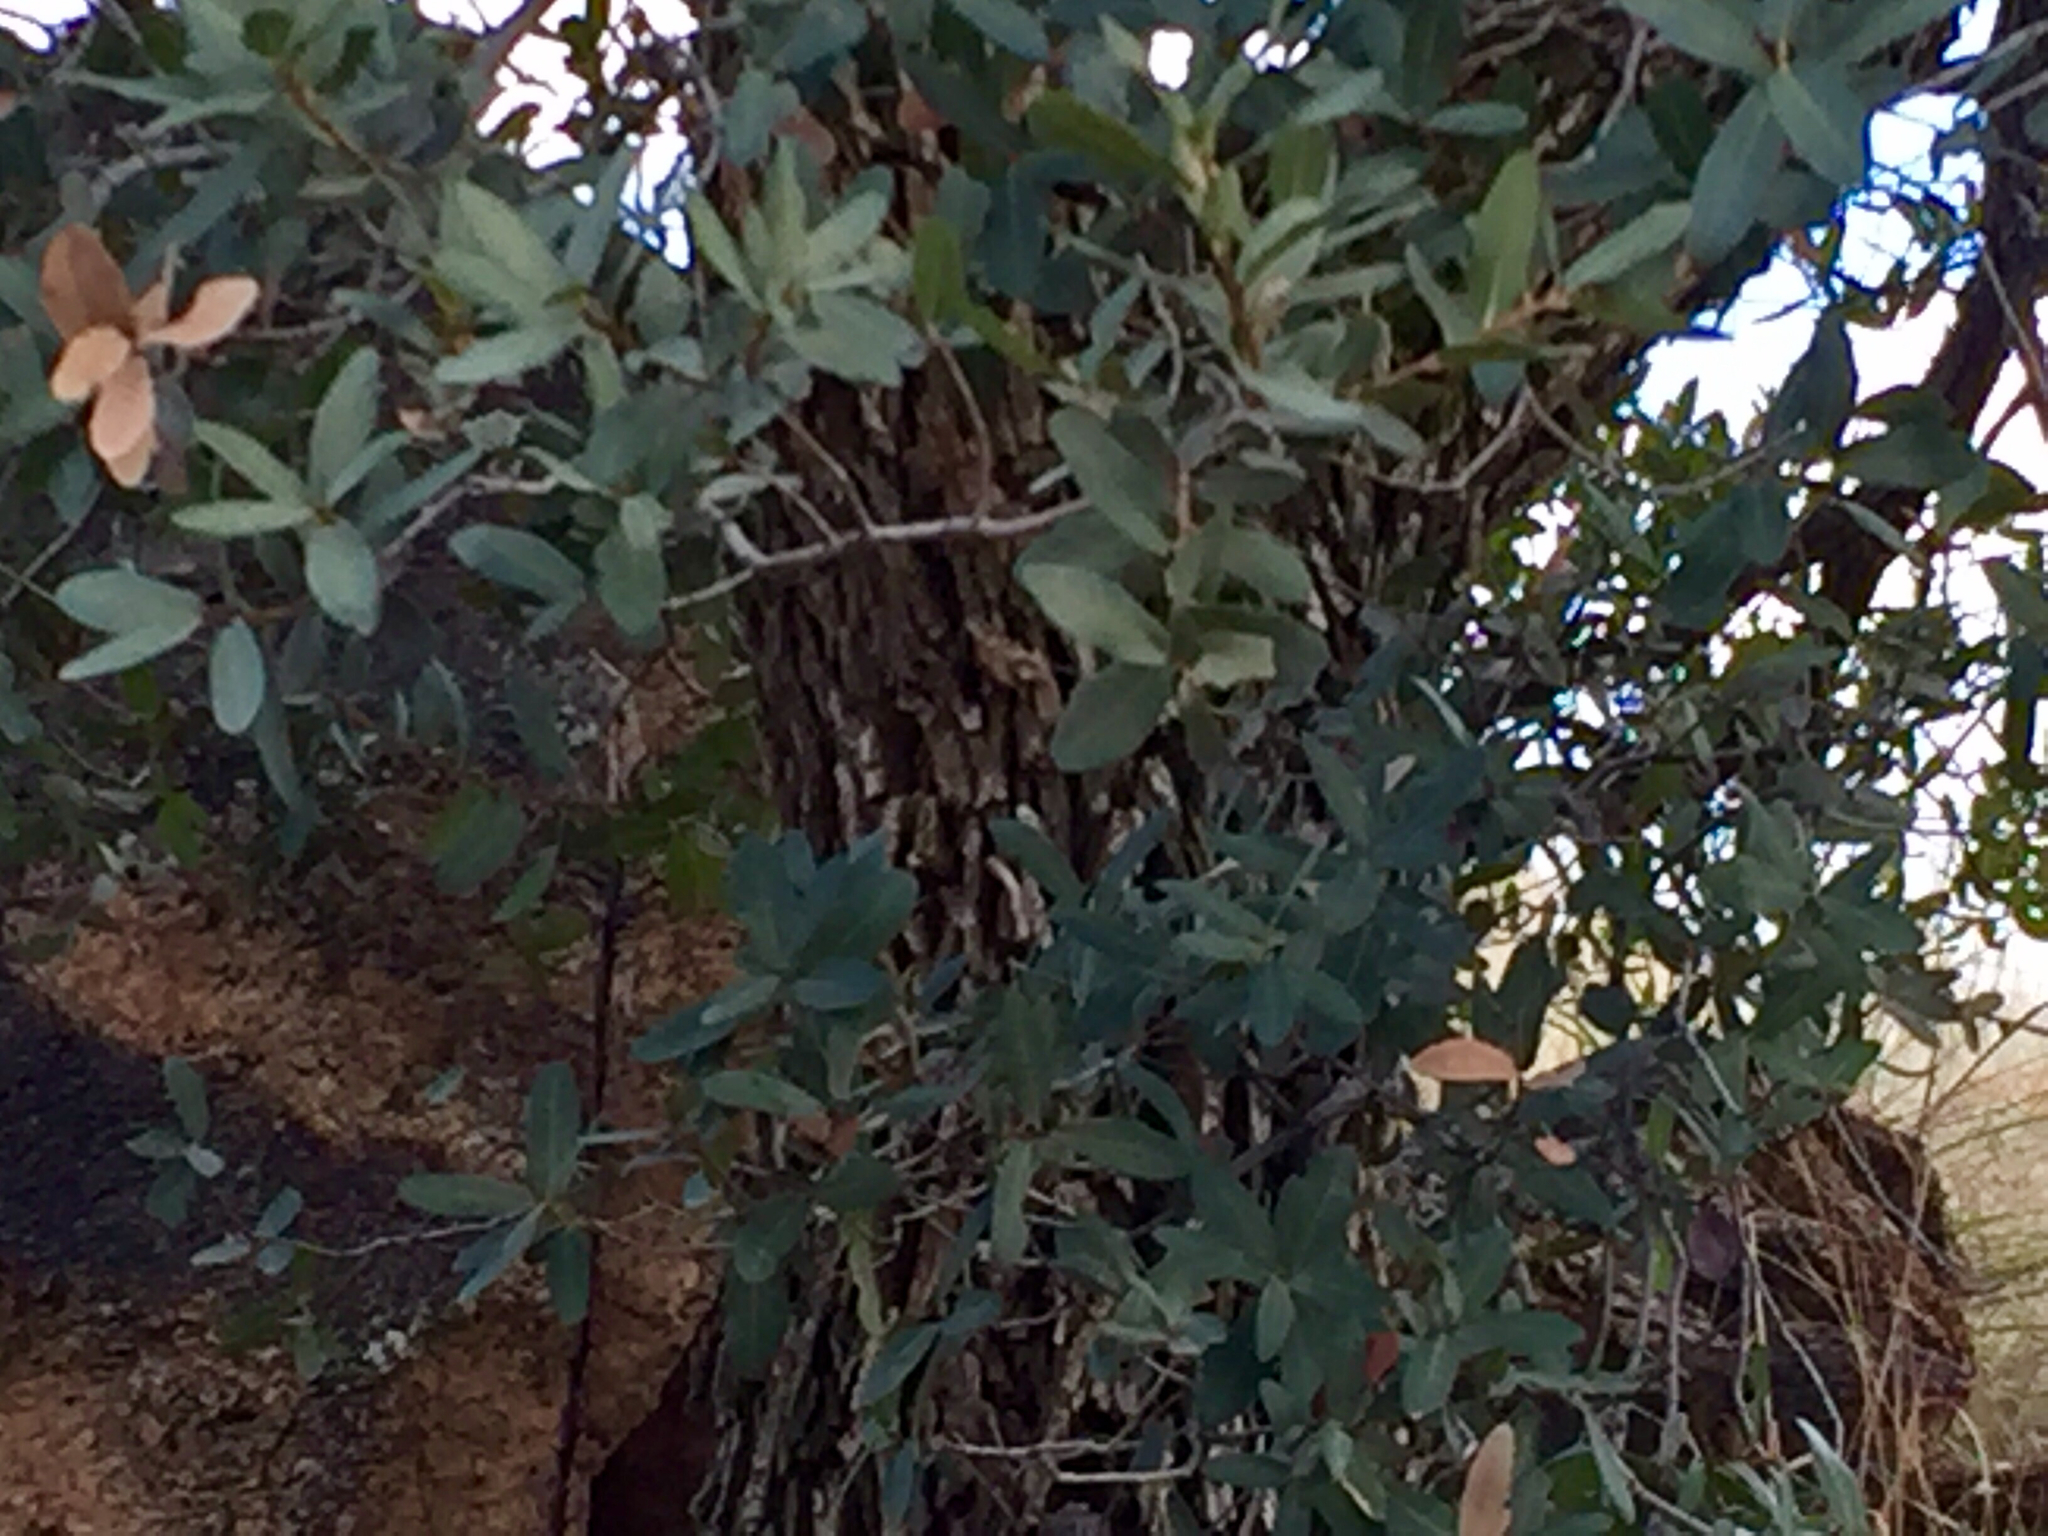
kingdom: Plantae
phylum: Tracheophyta
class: Magnoliopsida
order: Fagales
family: Fagaceae
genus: Quercus
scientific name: Quercus oblongifolia
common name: Mexican blue oak
